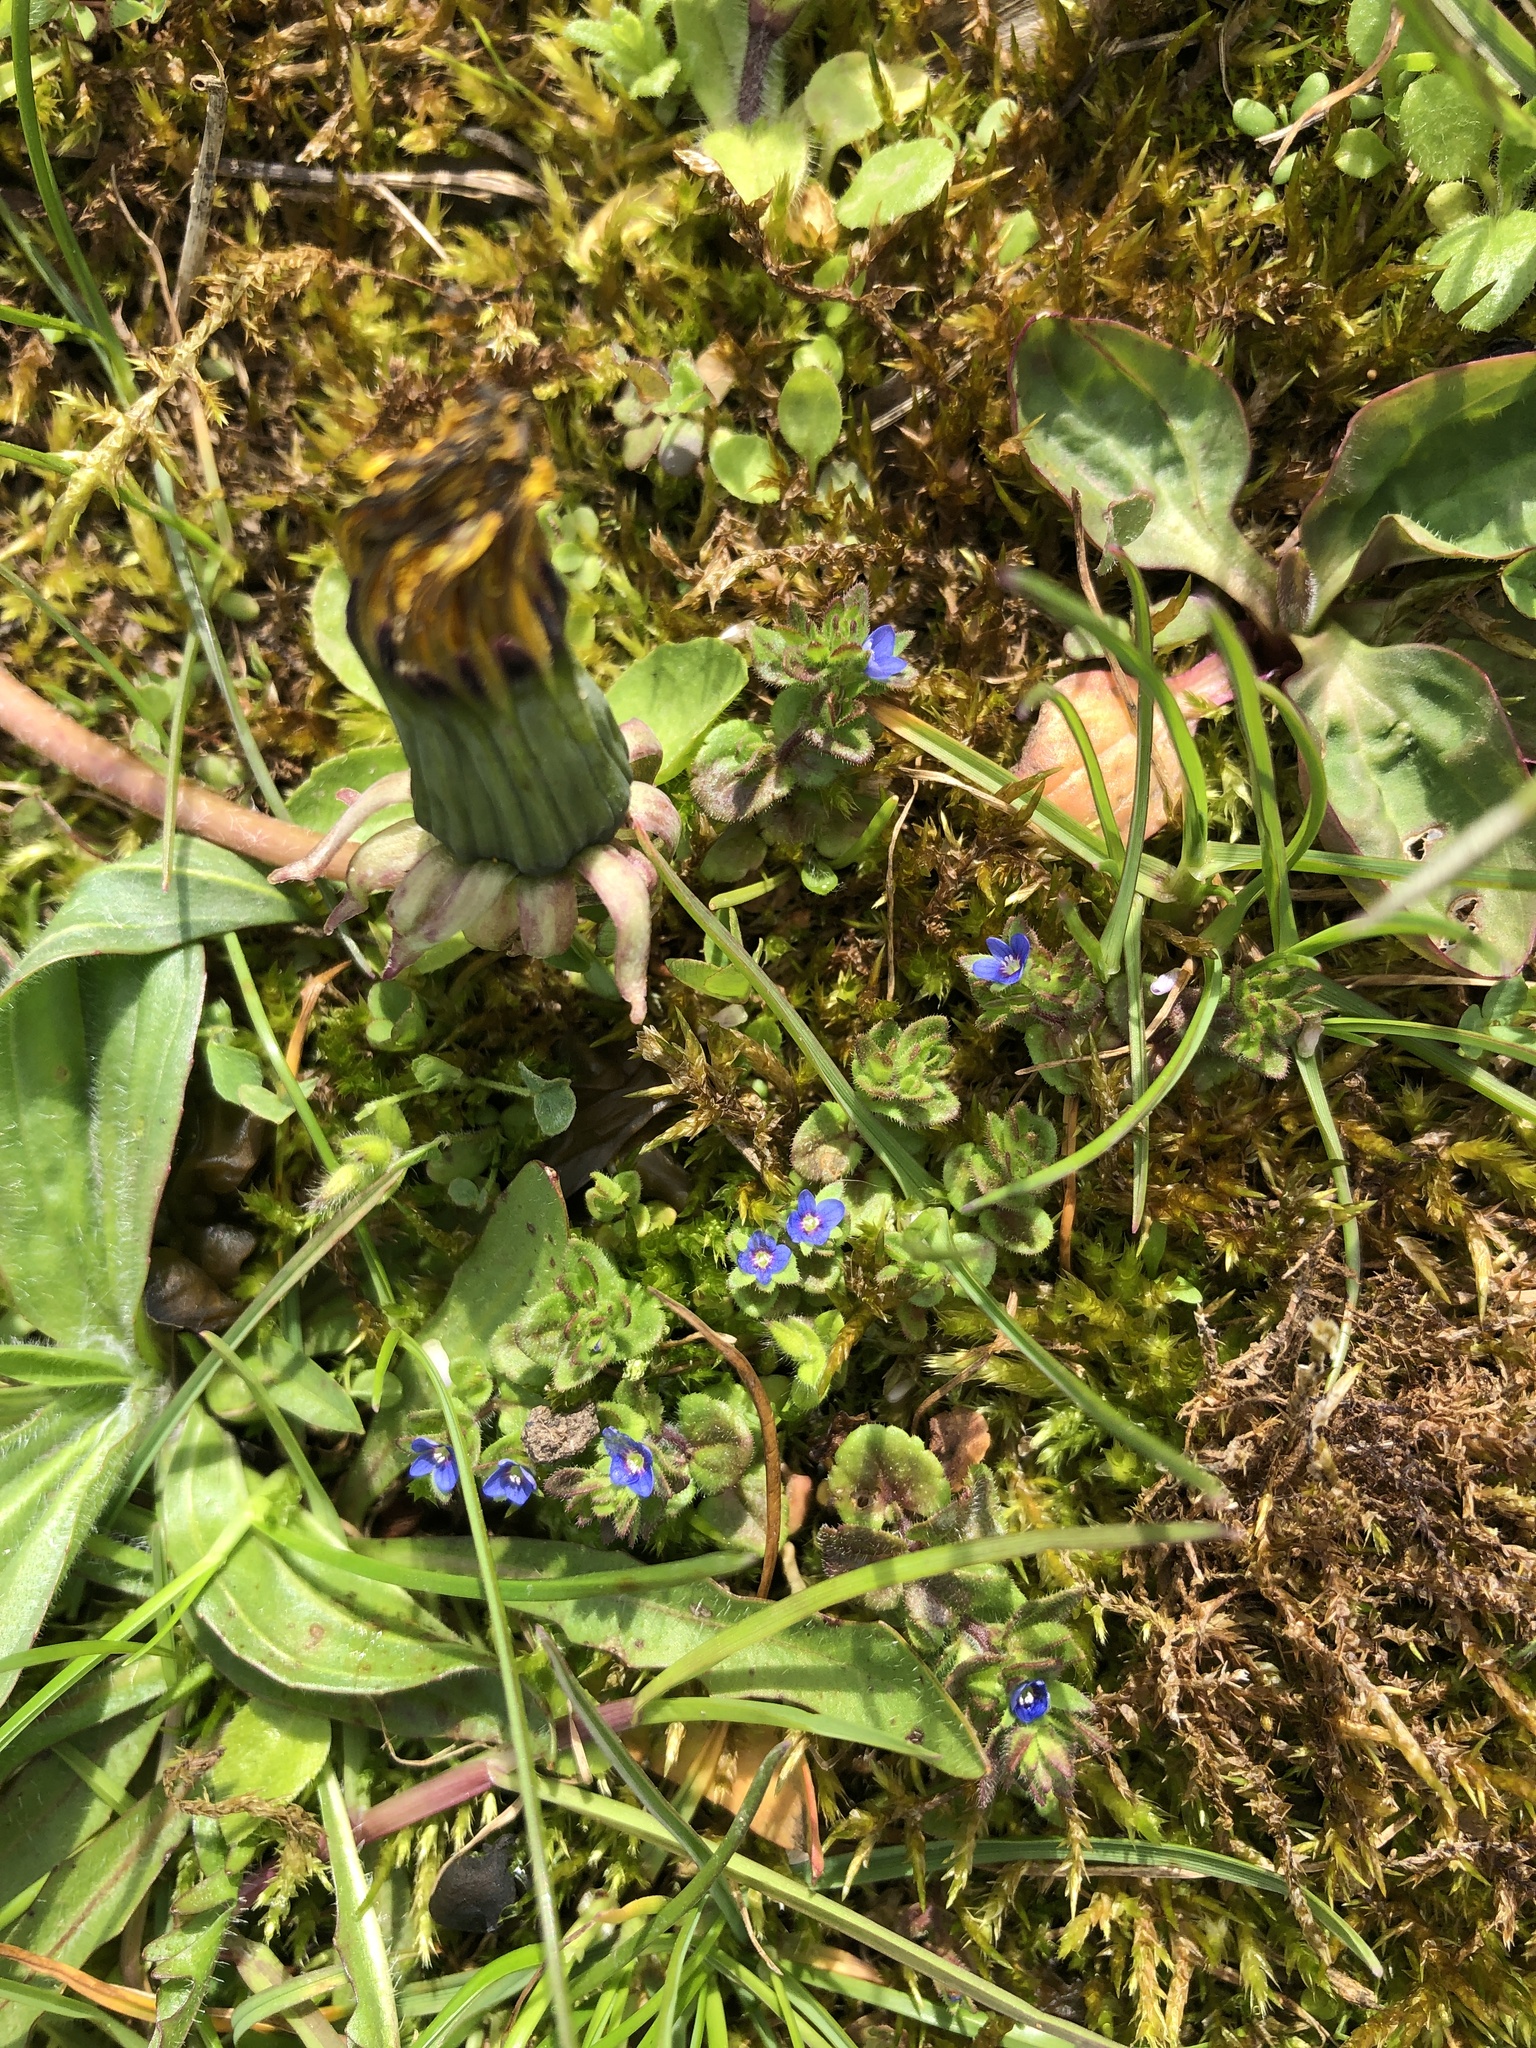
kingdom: Plantae
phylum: Tracheophyta
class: Magnoliopsida
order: Lamiales
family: Plantaginaceae
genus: Veronica
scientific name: Veronica arvensis
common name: Corn speedwell
